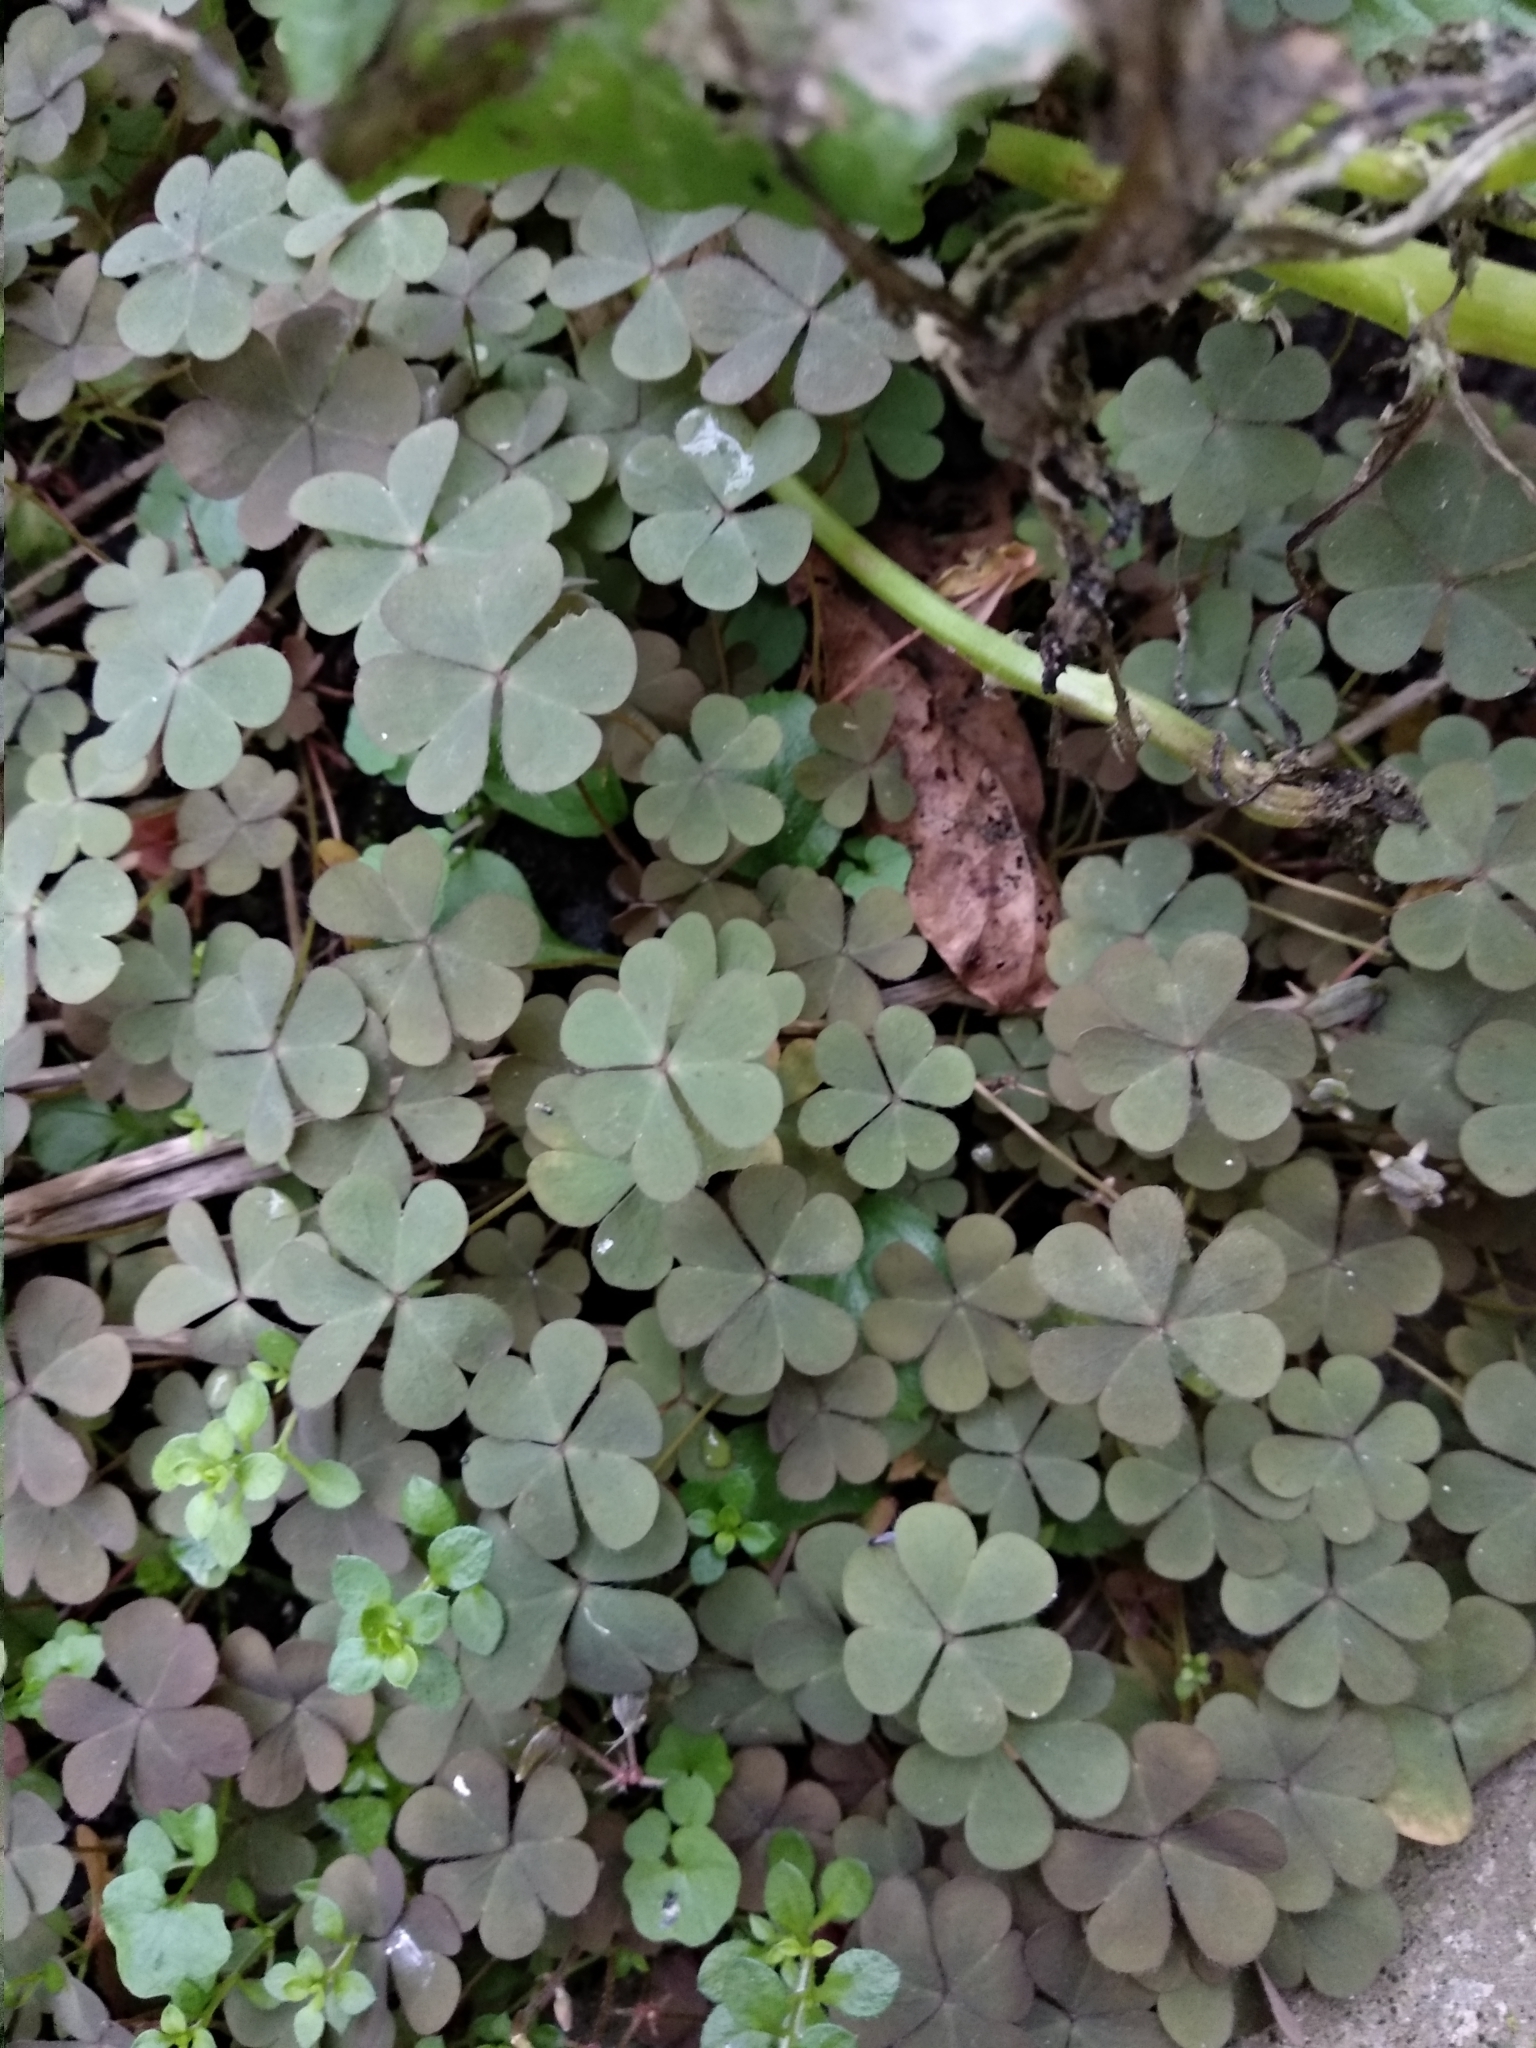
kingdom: Plantae
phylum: Tracheophyta
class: Magnoliopsida
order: Oxalidales
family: Oxalidaceae
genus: Oxalis
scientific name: Oxalis corniculata
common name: Procumbent yellow-sorrel
